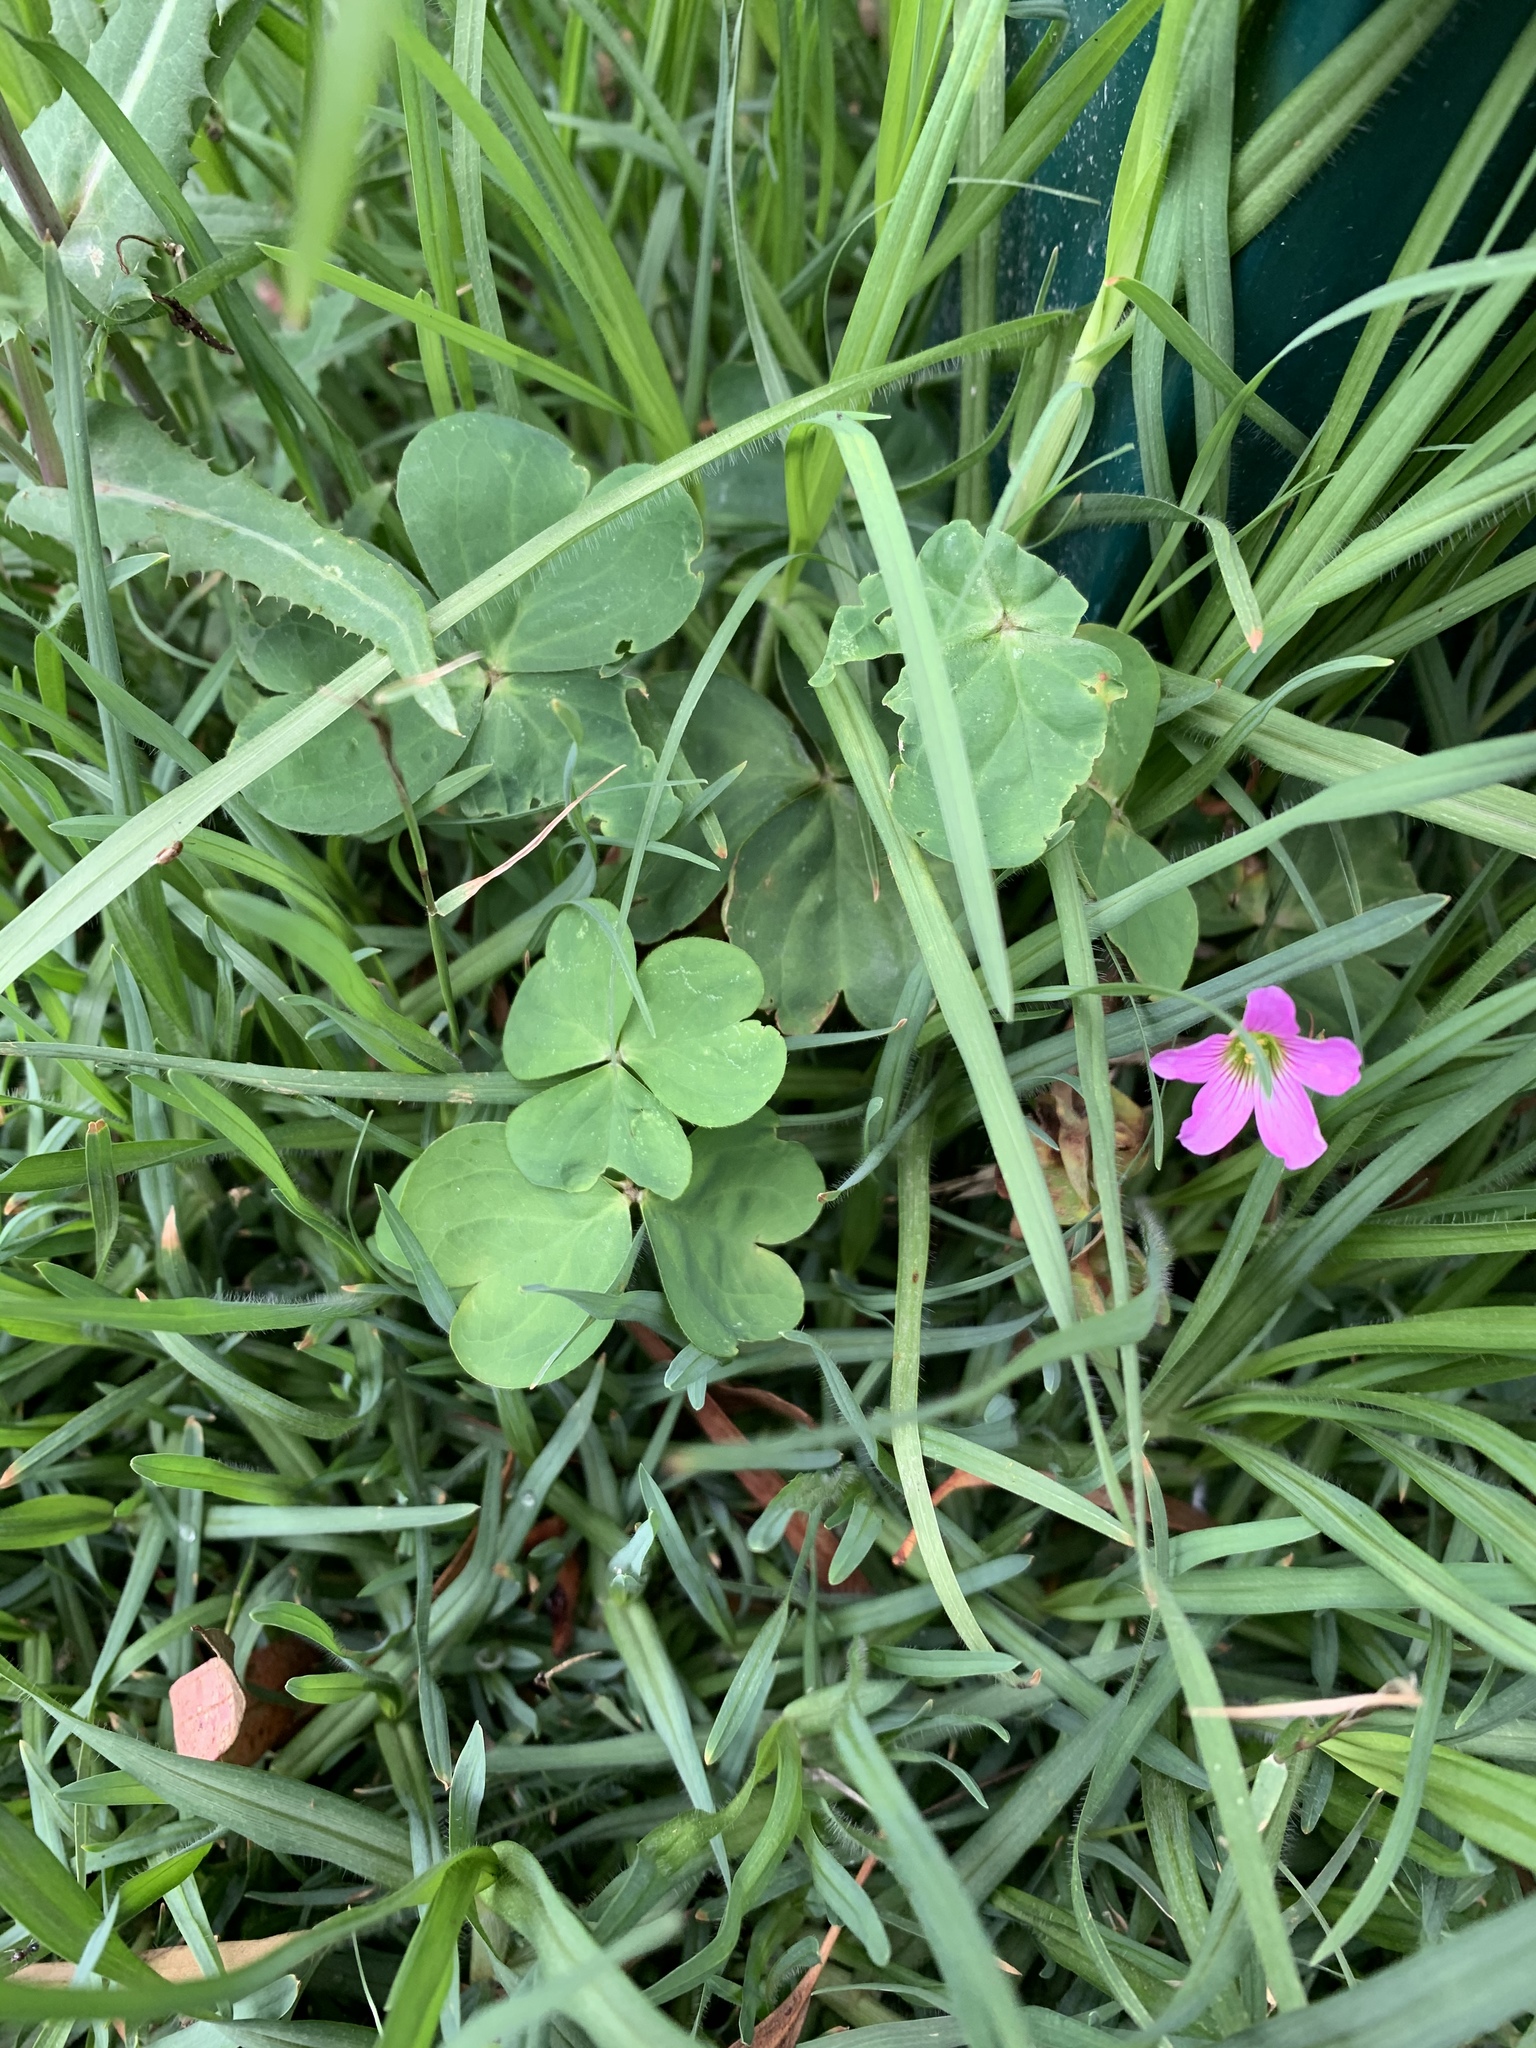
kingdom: Plantae
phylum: Tracheophyta
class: Magnoliopsida
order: Oxalidales
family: Oxalidaceae
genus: Oxalis
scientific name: Oxalis debilis
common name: Large-flowered pink-sorrel
